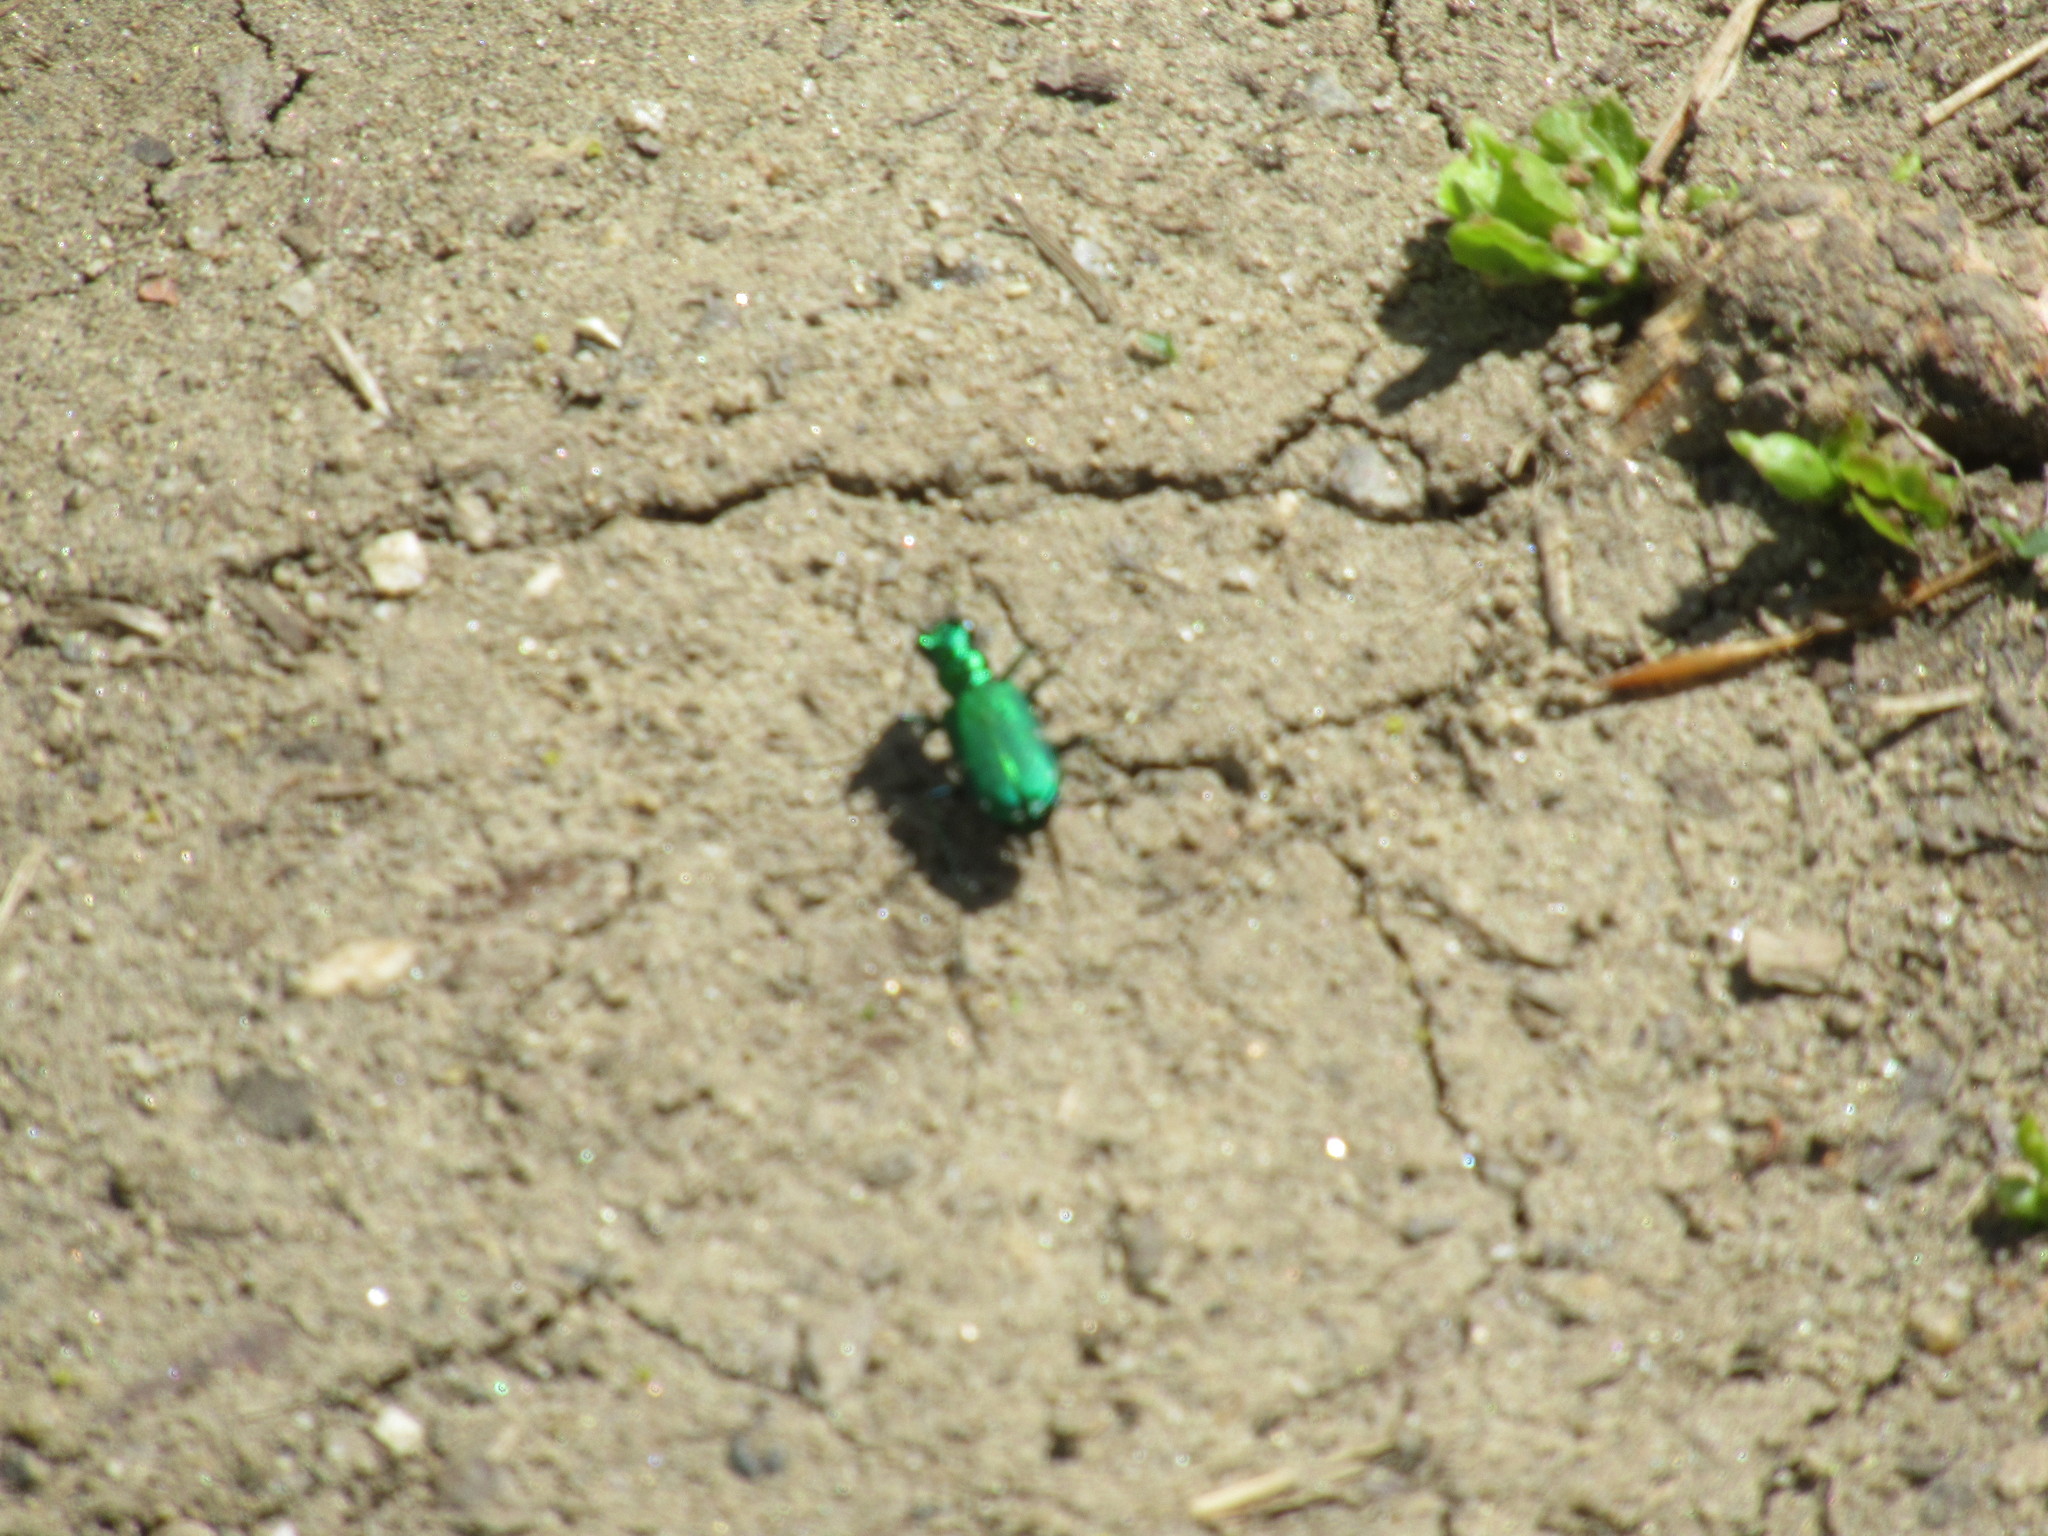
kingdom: Animalia
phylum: Arthropoda
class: Insecta
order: Coleoptera
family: Carabidae
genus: Cicindela
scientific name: Cicindela sexguttata
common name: Six-spotted tiger beetle
